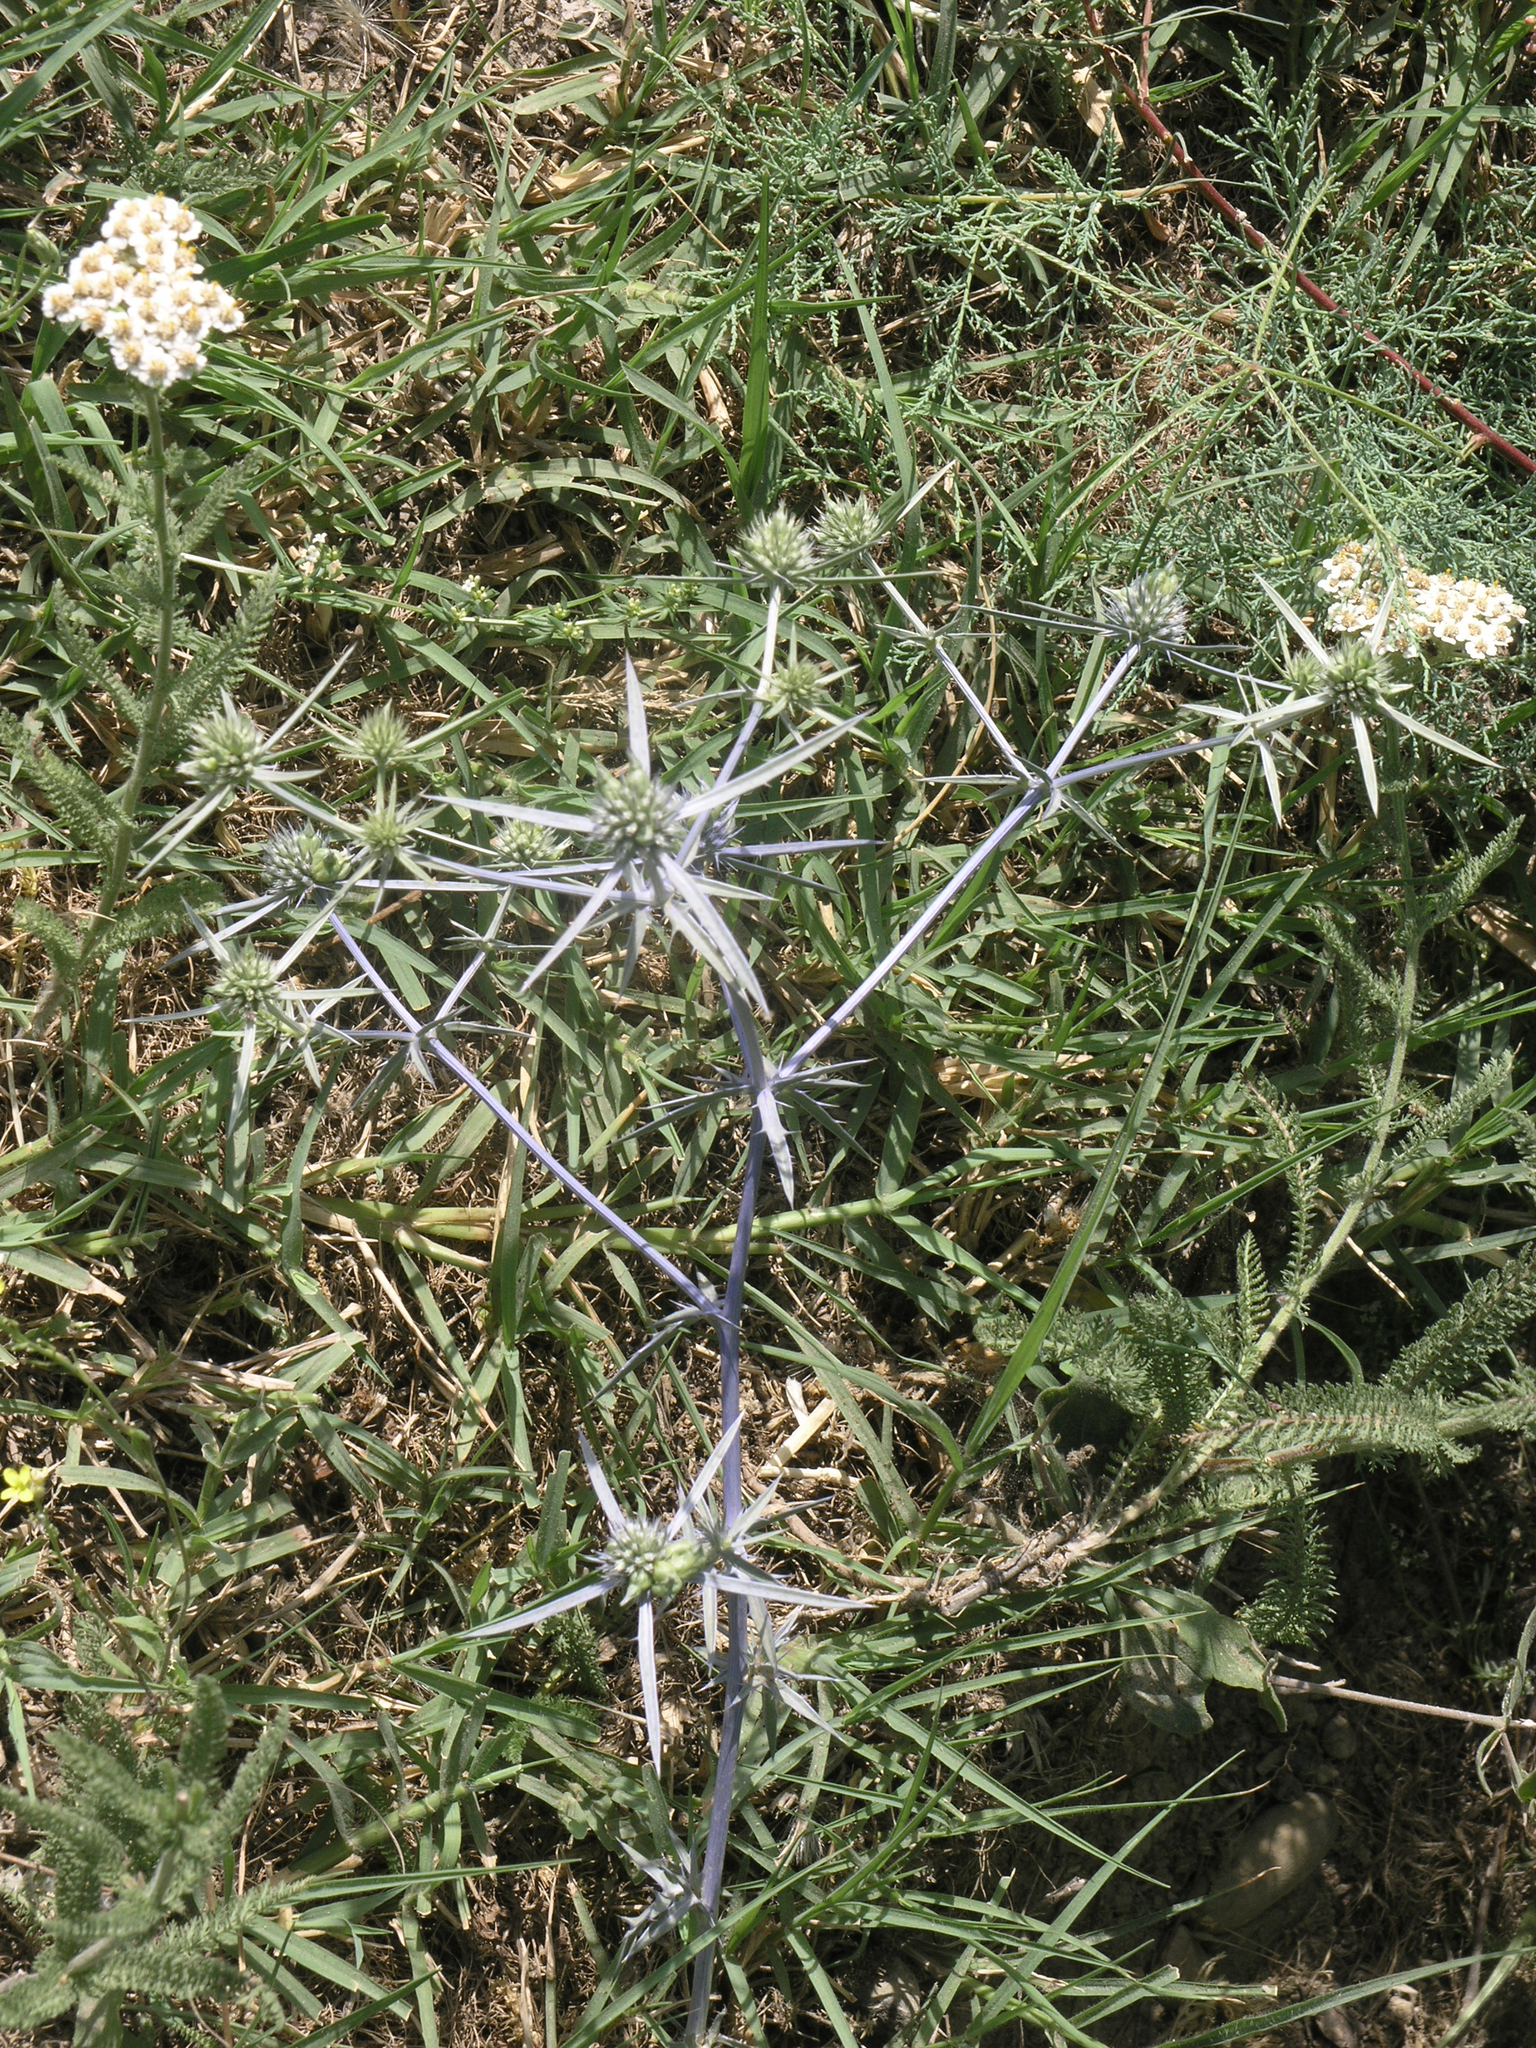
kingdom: Plantae
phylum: Tracheophyta
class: Magnoliopsida
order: Apiales
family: Apiaceae
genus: Eryngium
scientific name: Eryngium caeruleum
